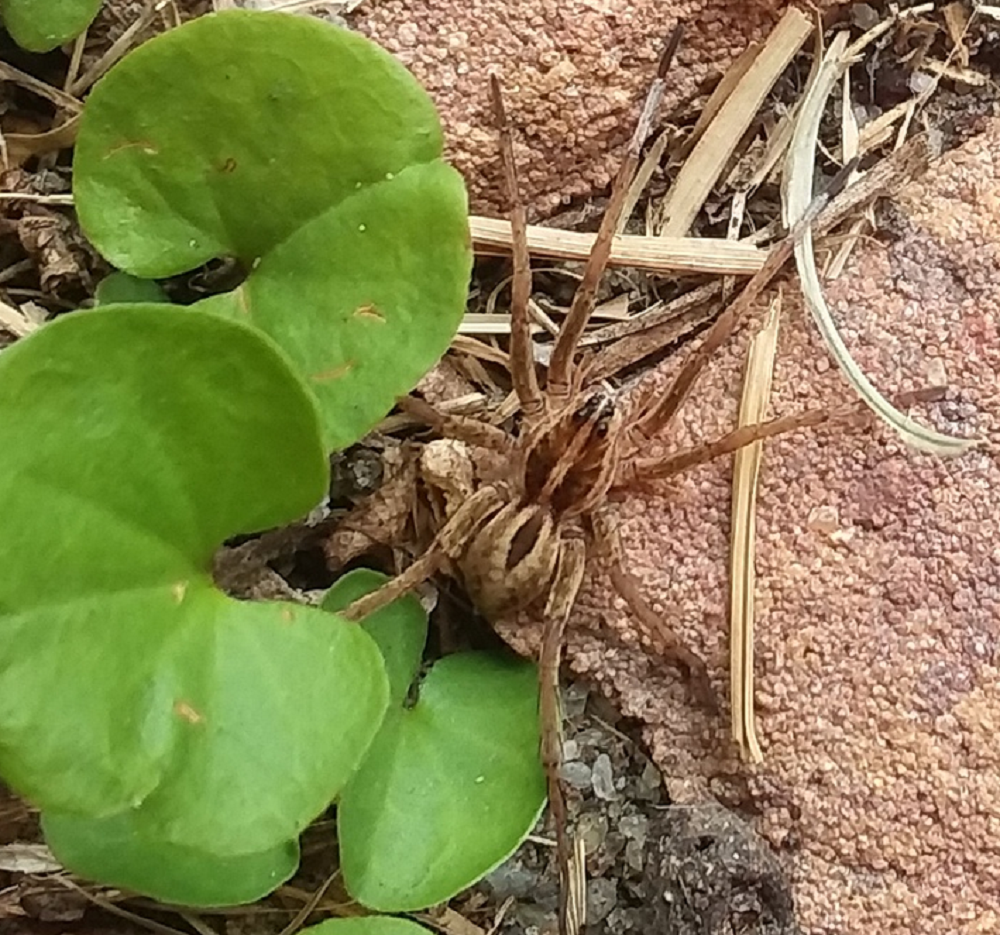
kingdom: Animalia
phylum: Arthropoda
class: Arachnida
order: Araneae
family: Lycosidae
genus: Tigrosa
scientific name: Tigrosa annexa
